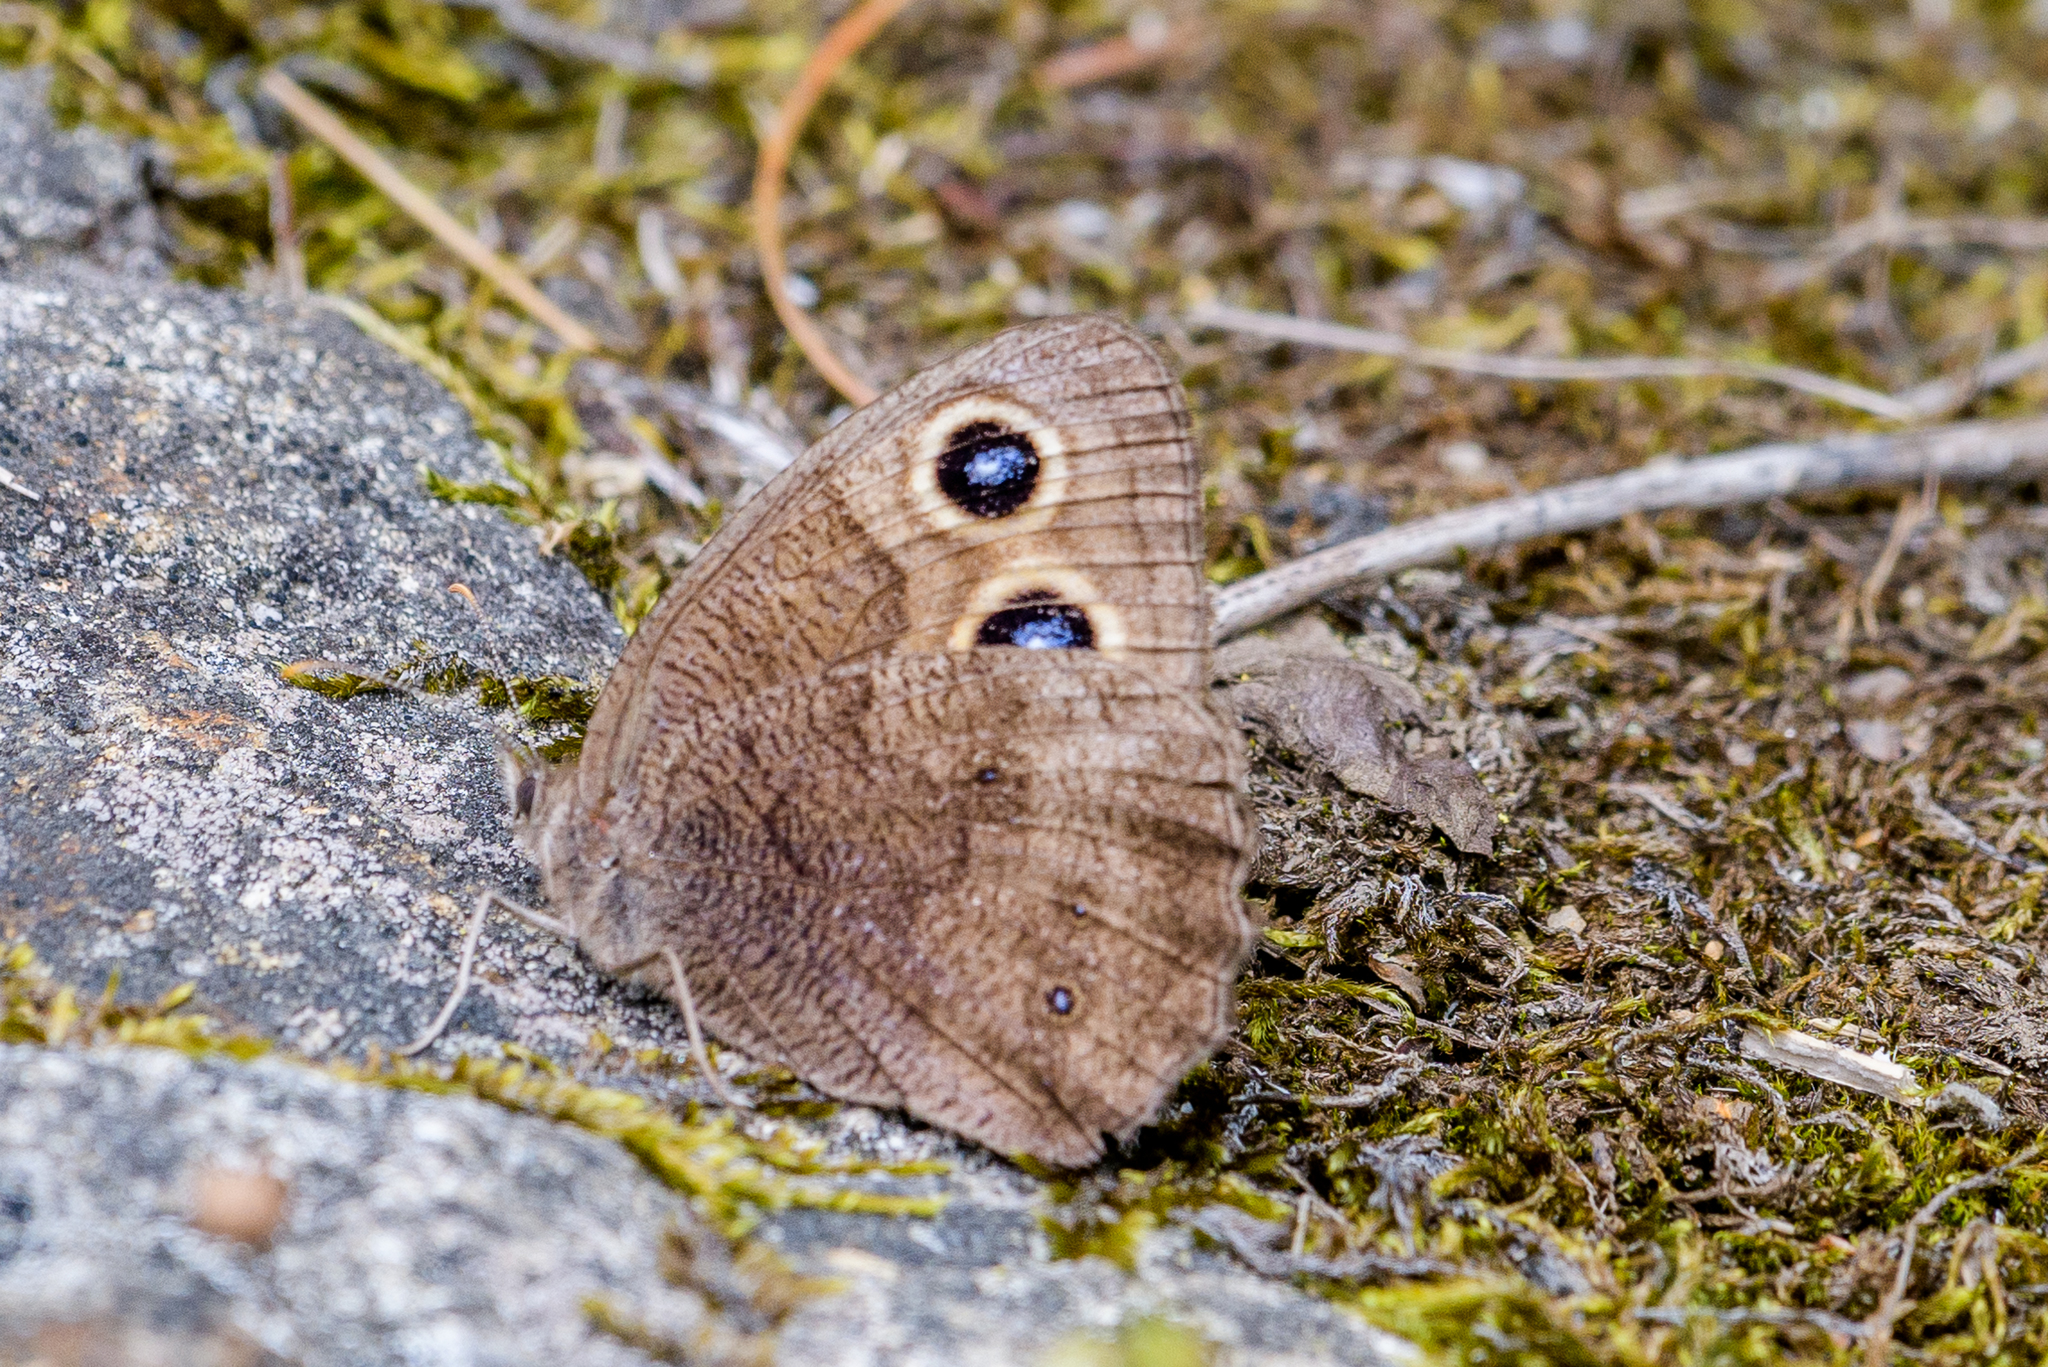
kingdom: Animalia
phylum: Arthropoda
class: Insecta
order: Lepidoptera
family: Nymphalidae
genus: Cercyonis
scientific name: Cercyonis pegala
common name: Common wood-nymph
